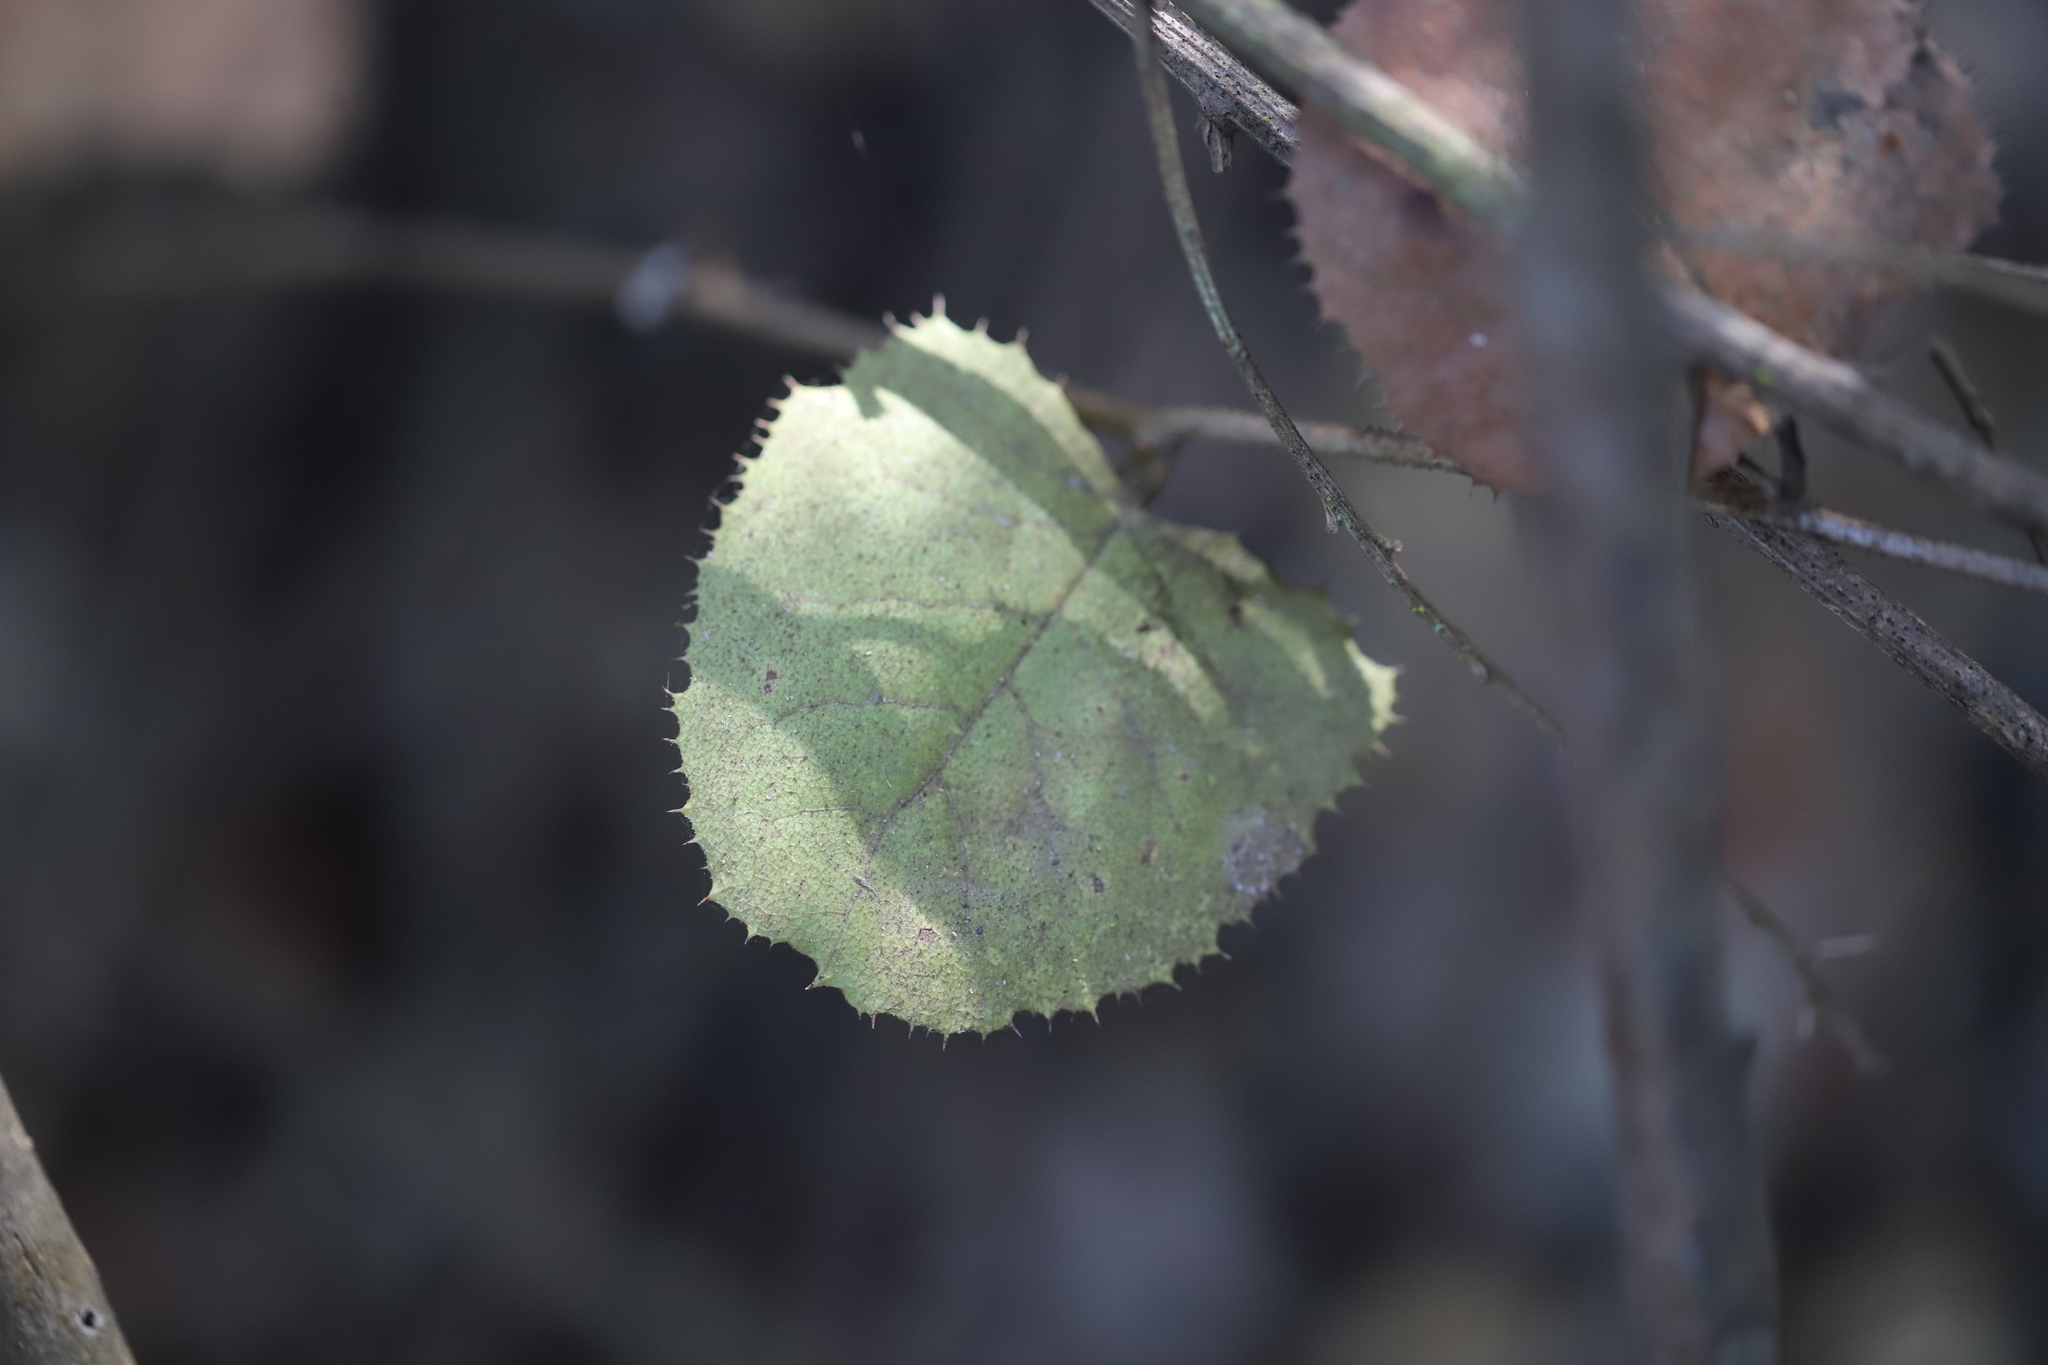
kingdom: Plantae
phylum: Tracheophyta
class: Magnoliopsida
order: Asterales
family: Asteraceae
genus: Proustia
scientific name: Proustia pyrifolia
